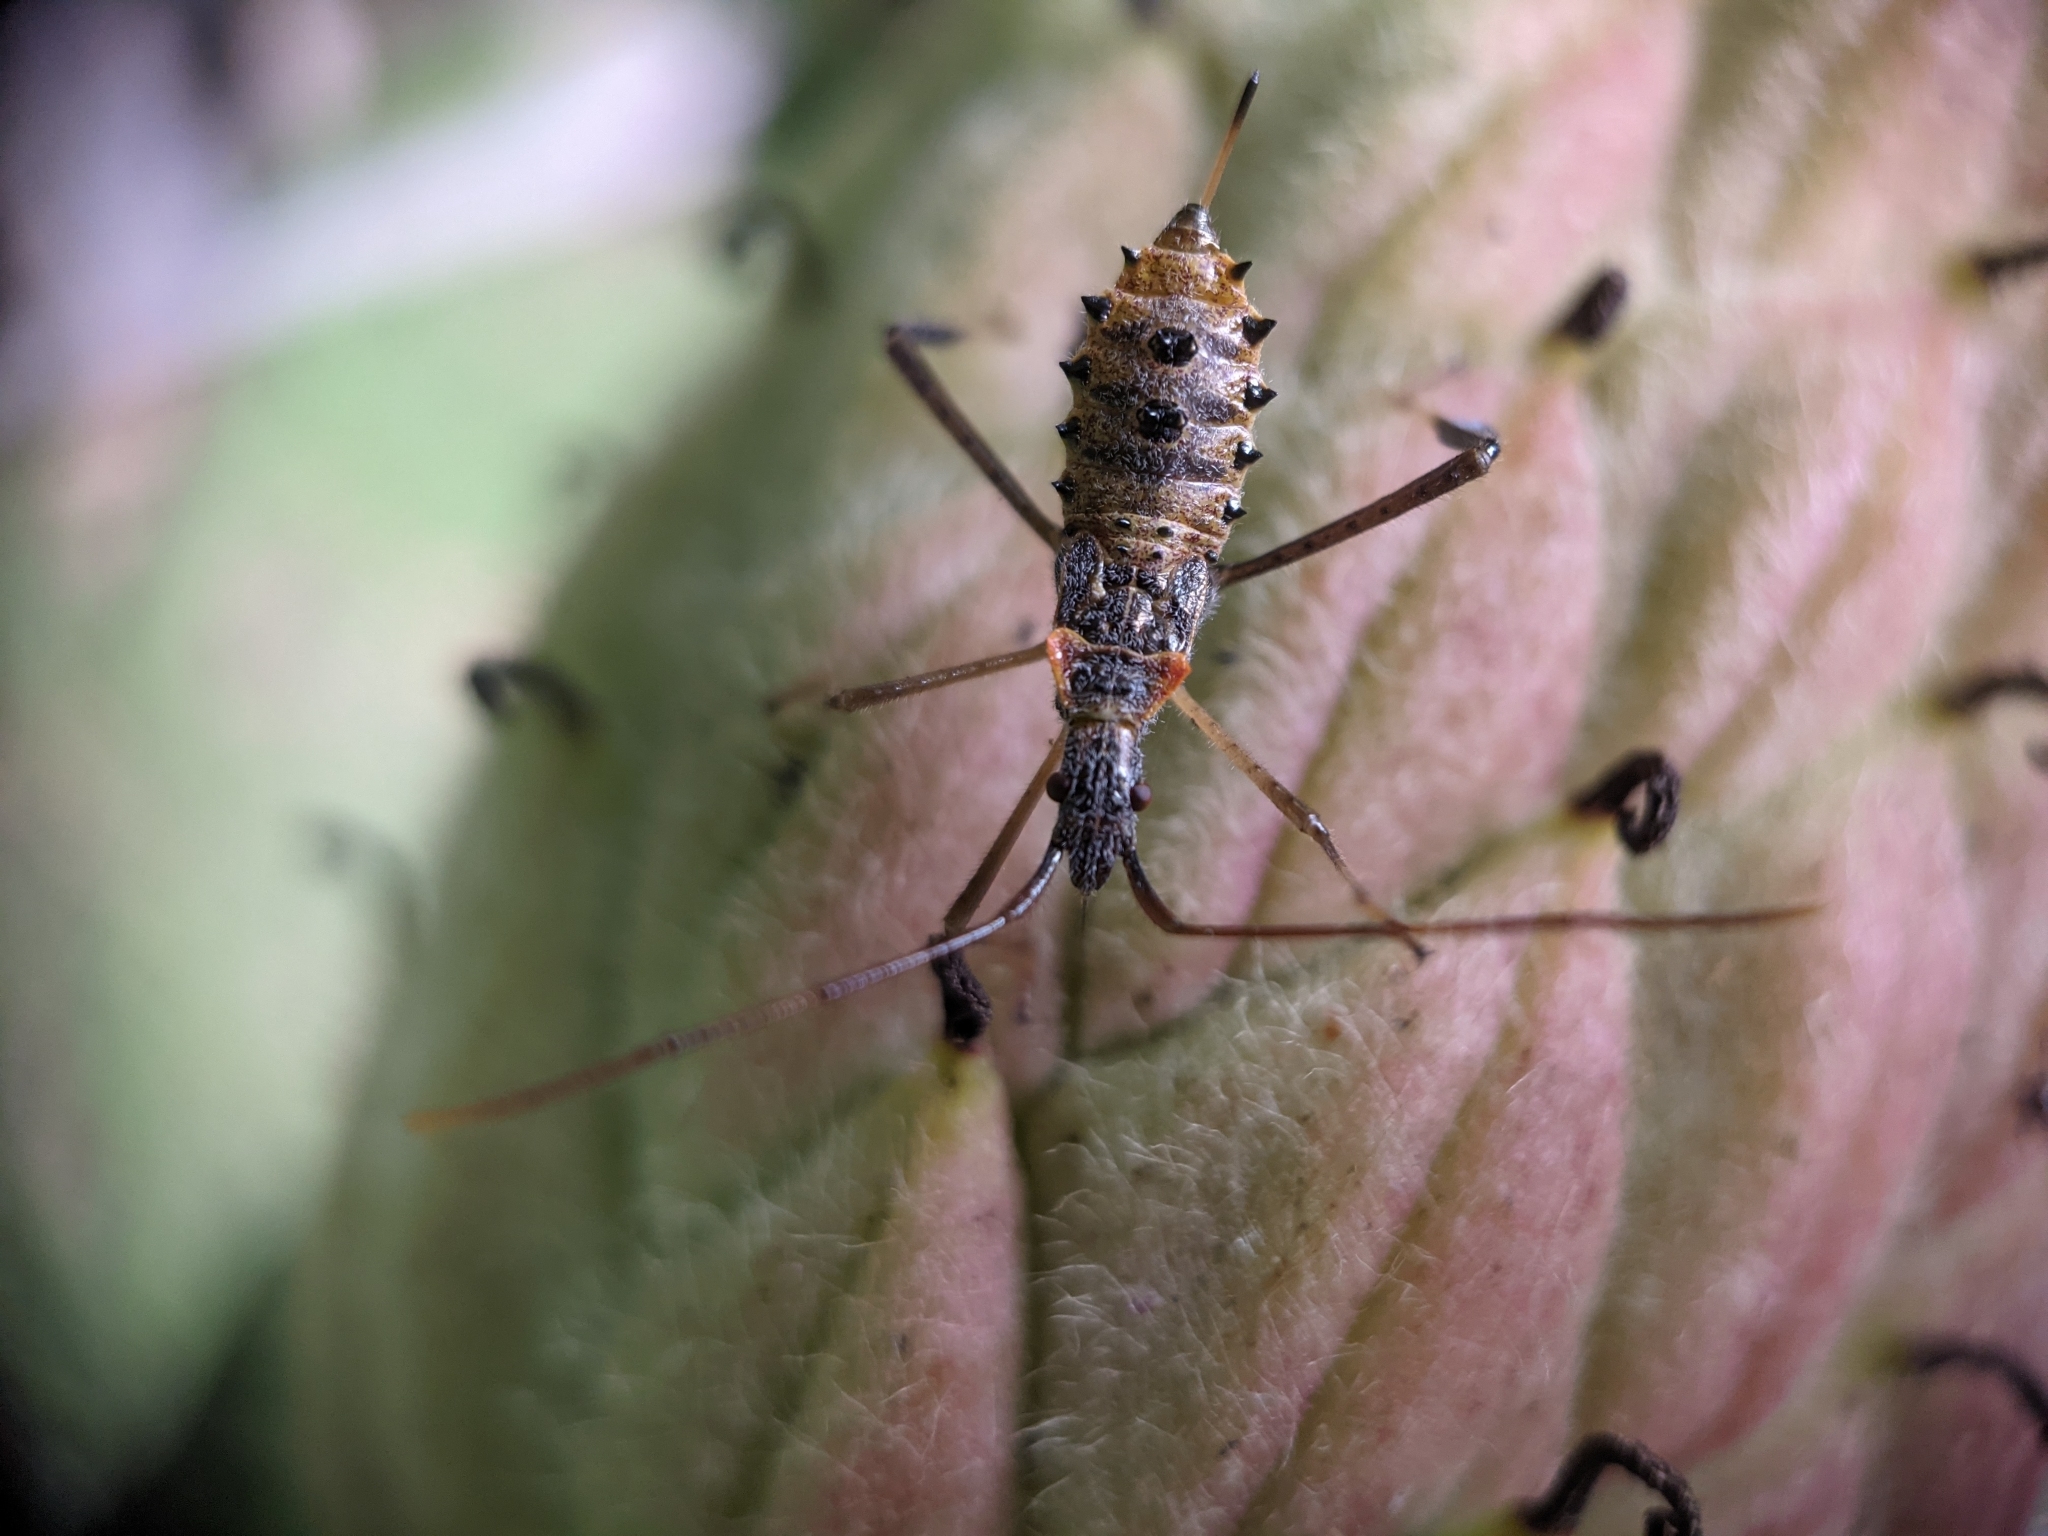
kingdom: Animalia
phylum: Arthropoda
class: Insecta
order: Hemiptera
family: Coreidae
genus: Leptoglossus
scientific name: Leptoglossus fulvicornis
